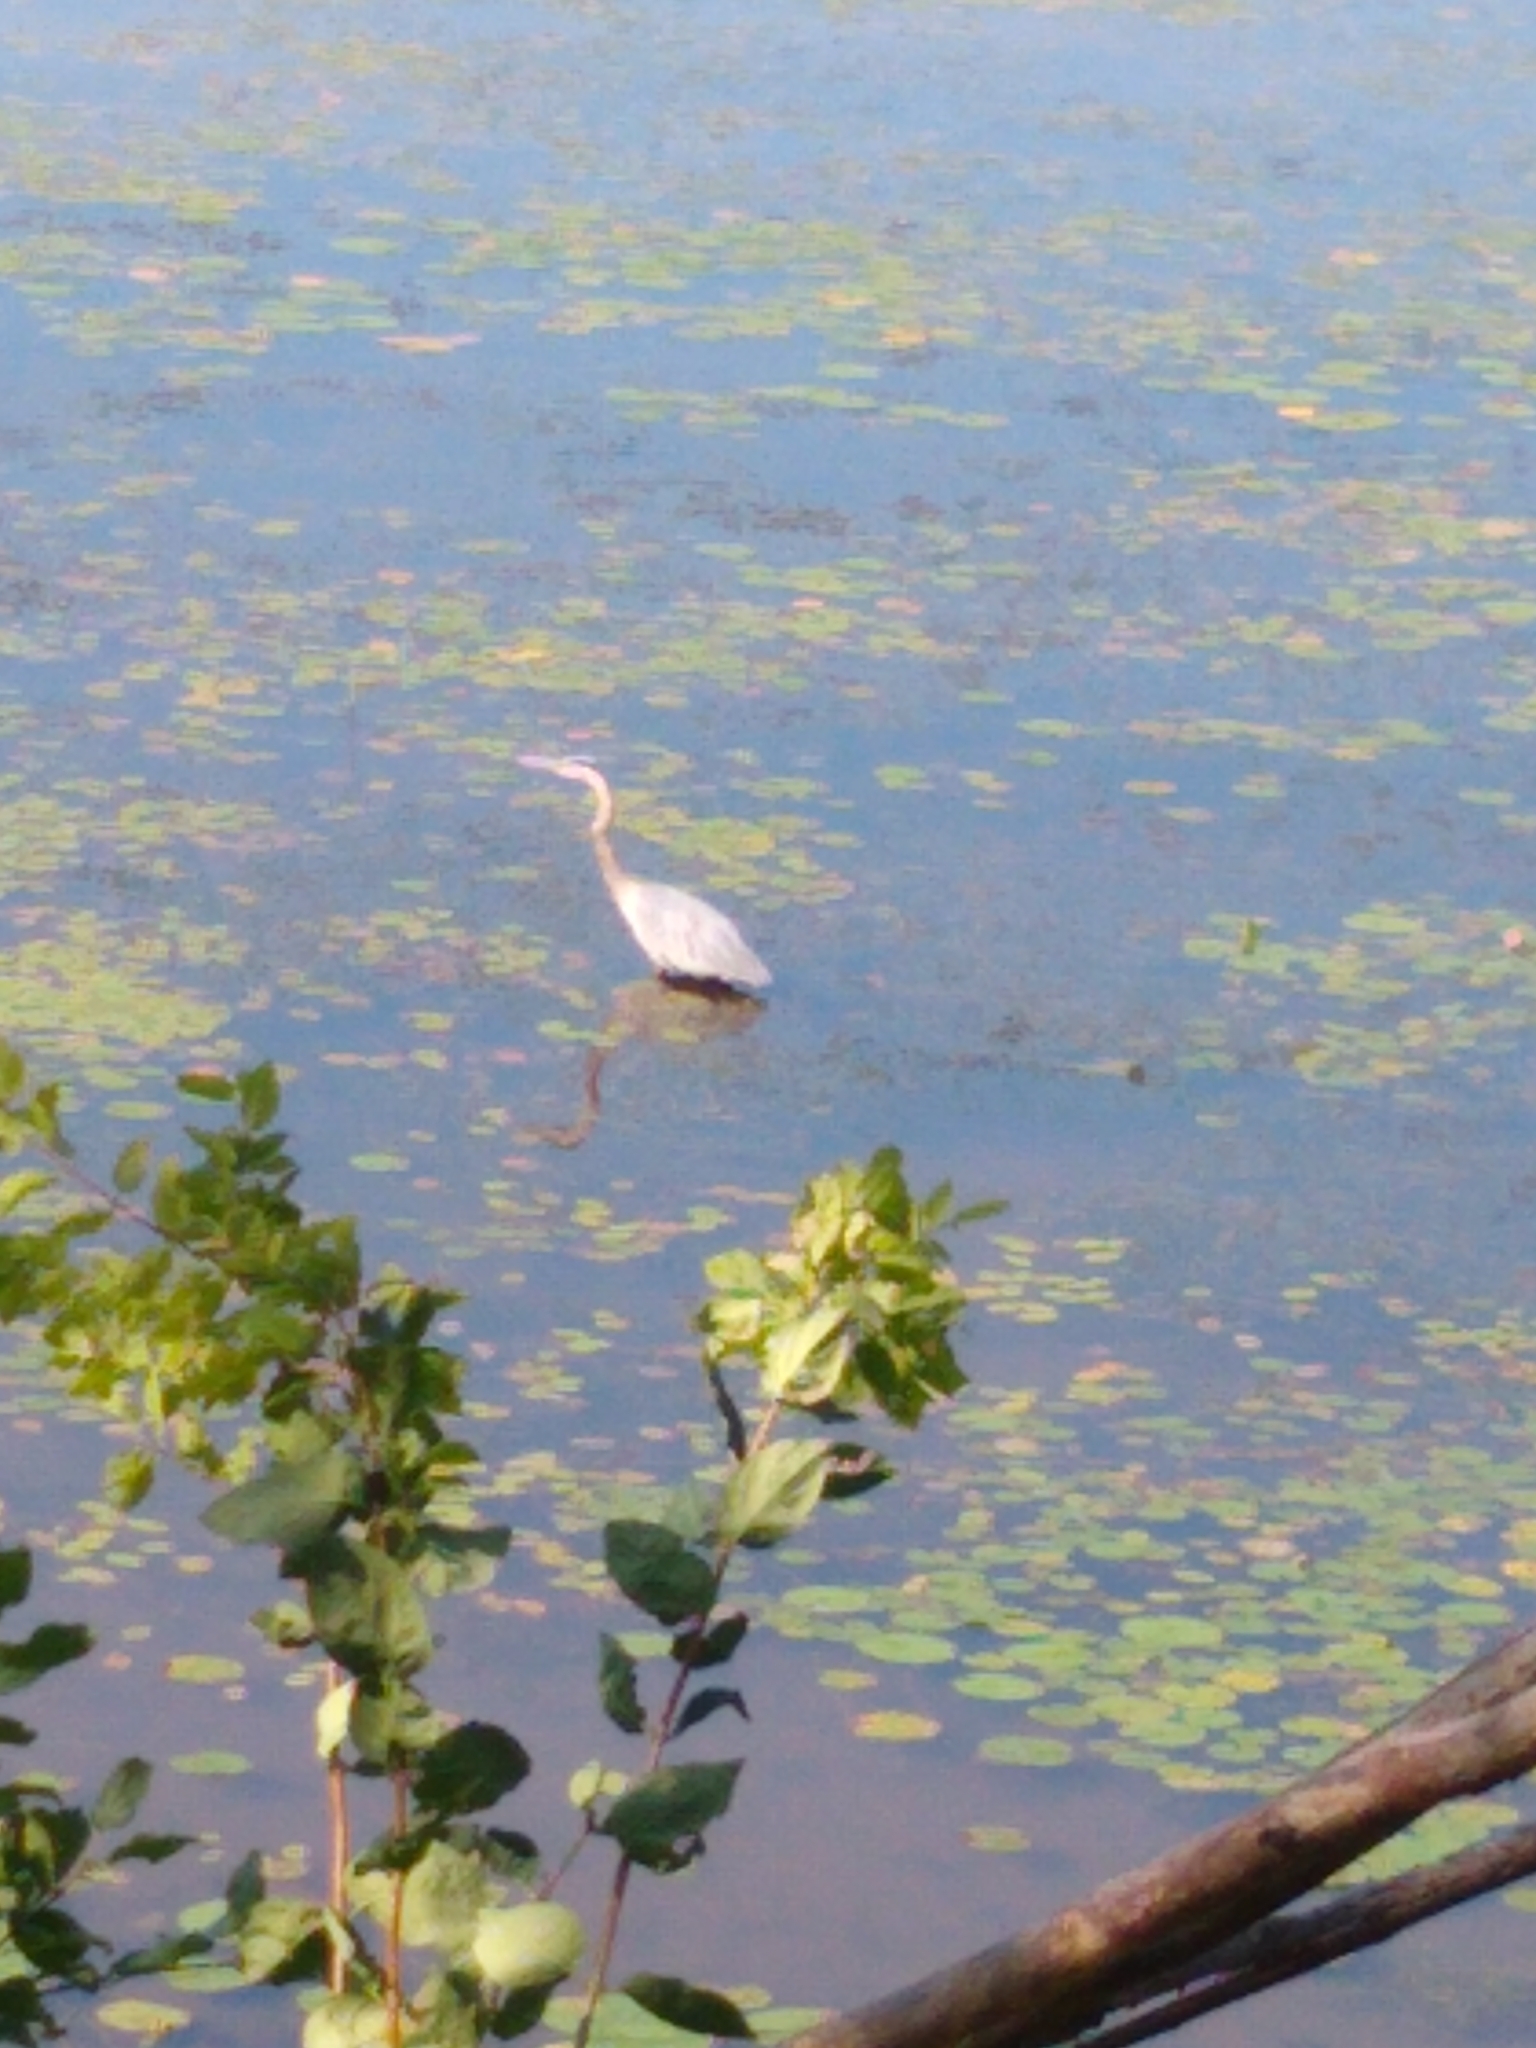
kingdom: Animalia
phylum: Chordata
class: Aves
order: Pelecaniformes
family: Ardeidae
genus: Ardea
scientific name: Ardea herodias
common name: Great blue heron
